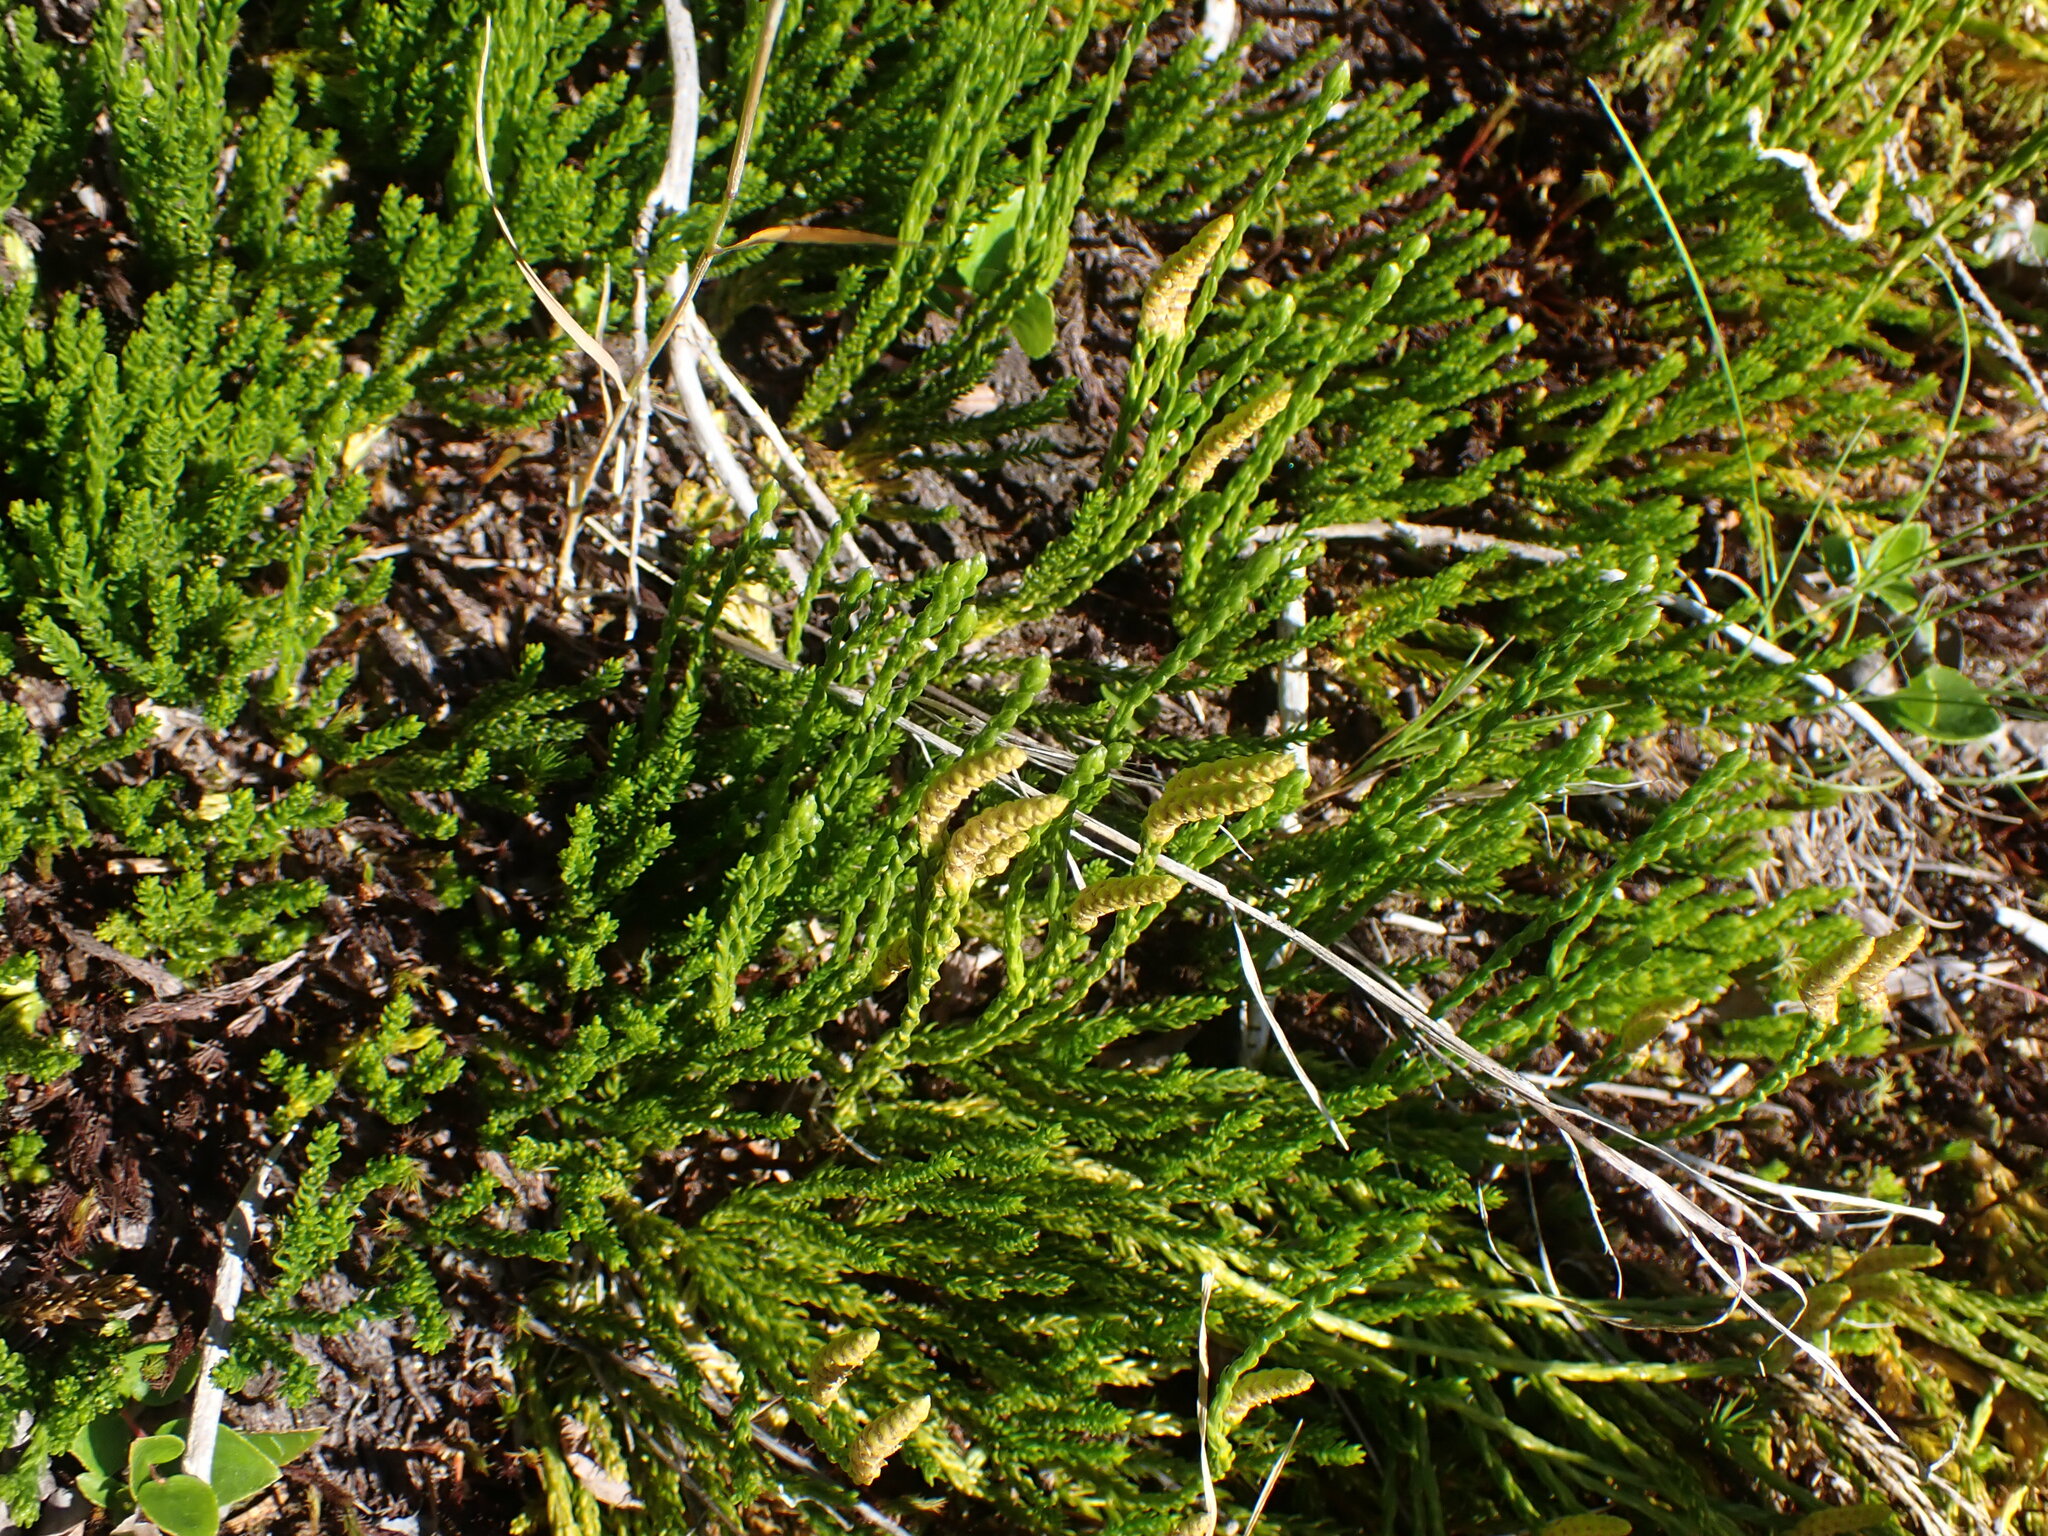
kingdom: Plantae
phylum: Tracheophyta
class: Lycopodiopsida
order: Lycopodiales
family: Lycopodiaceae
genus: Diphasiastrum
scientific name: Diphasiastrum sitchense
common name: Alaska clubmoss
